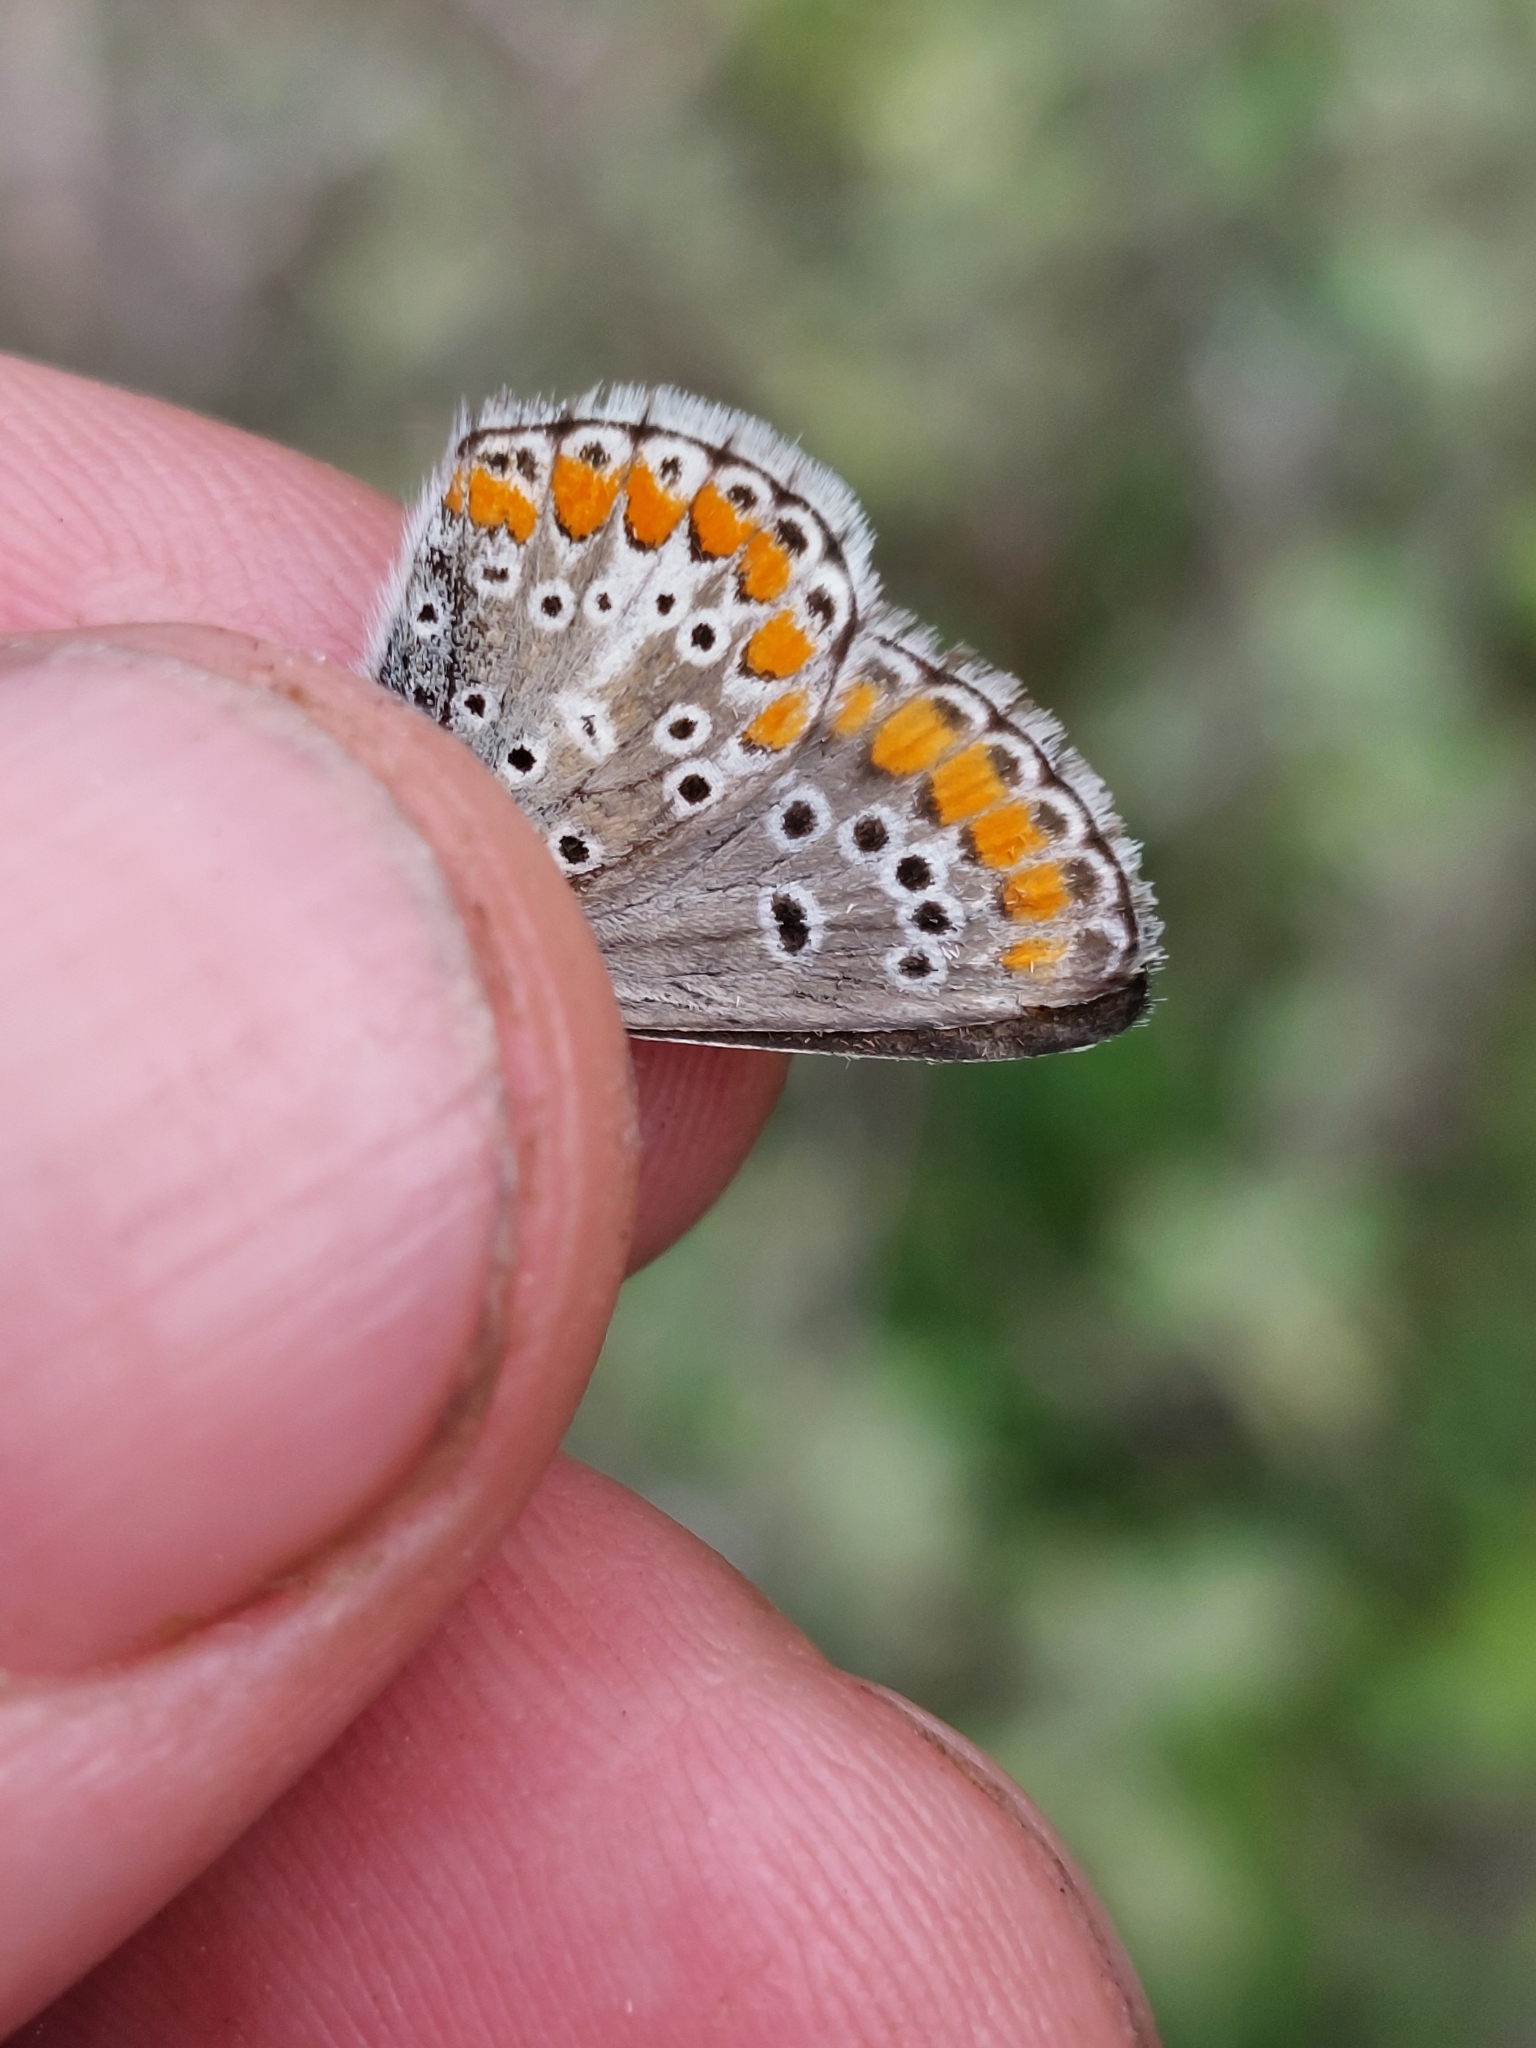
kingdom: Animalia
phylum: Arthropoda
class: Insecta
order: Lepidoptera
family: Lycaenidae
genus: Aricia
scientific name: Aricia agestis
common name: Brown argus
